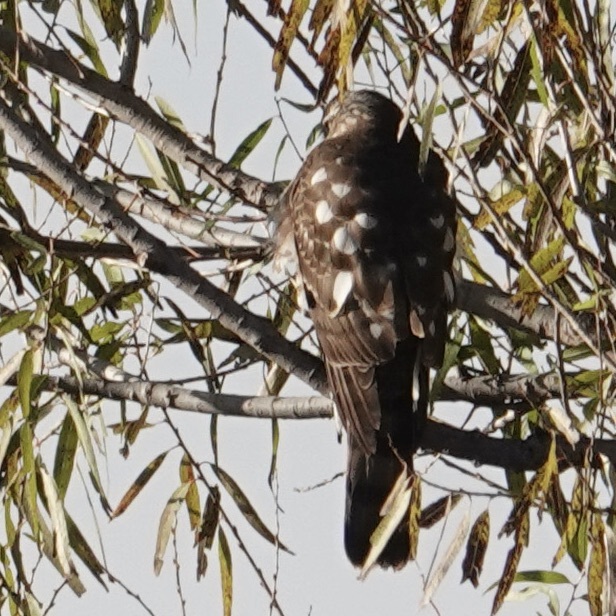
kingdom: Animalia
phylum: Chordata
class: Aves
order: Accipitriformes
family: Accipitridae
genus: Accipiter
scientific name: Accipiter striatus
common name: Sharp-shinned hawk
